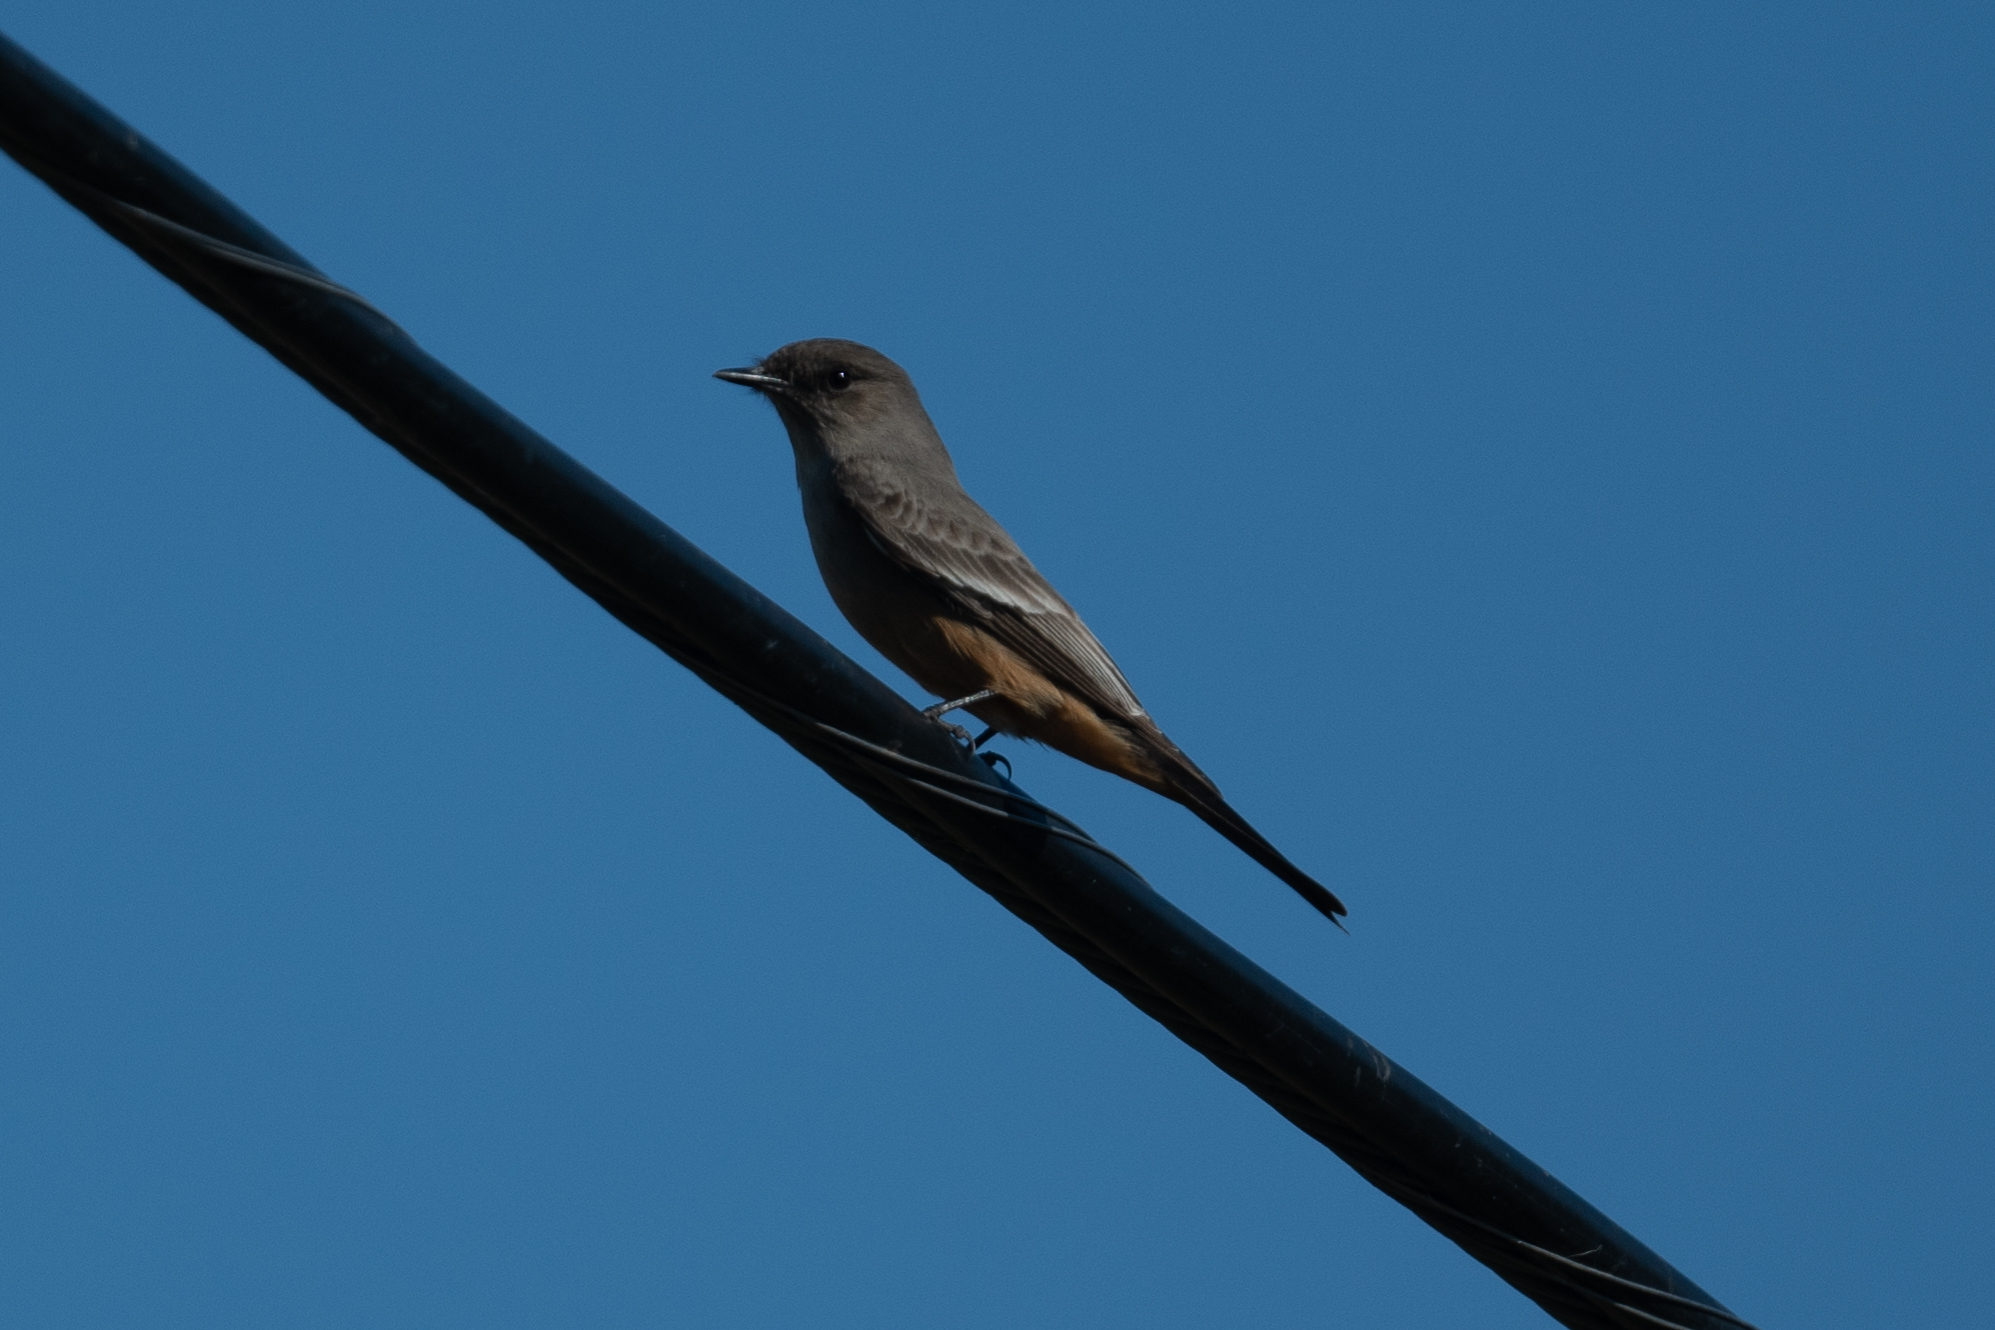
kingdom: Animalia
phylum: Chordata
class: Aves
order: Passeriformes
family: Tyrannidae
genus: Sayornis
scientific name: Sayornis saya
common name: Say's phoebe
